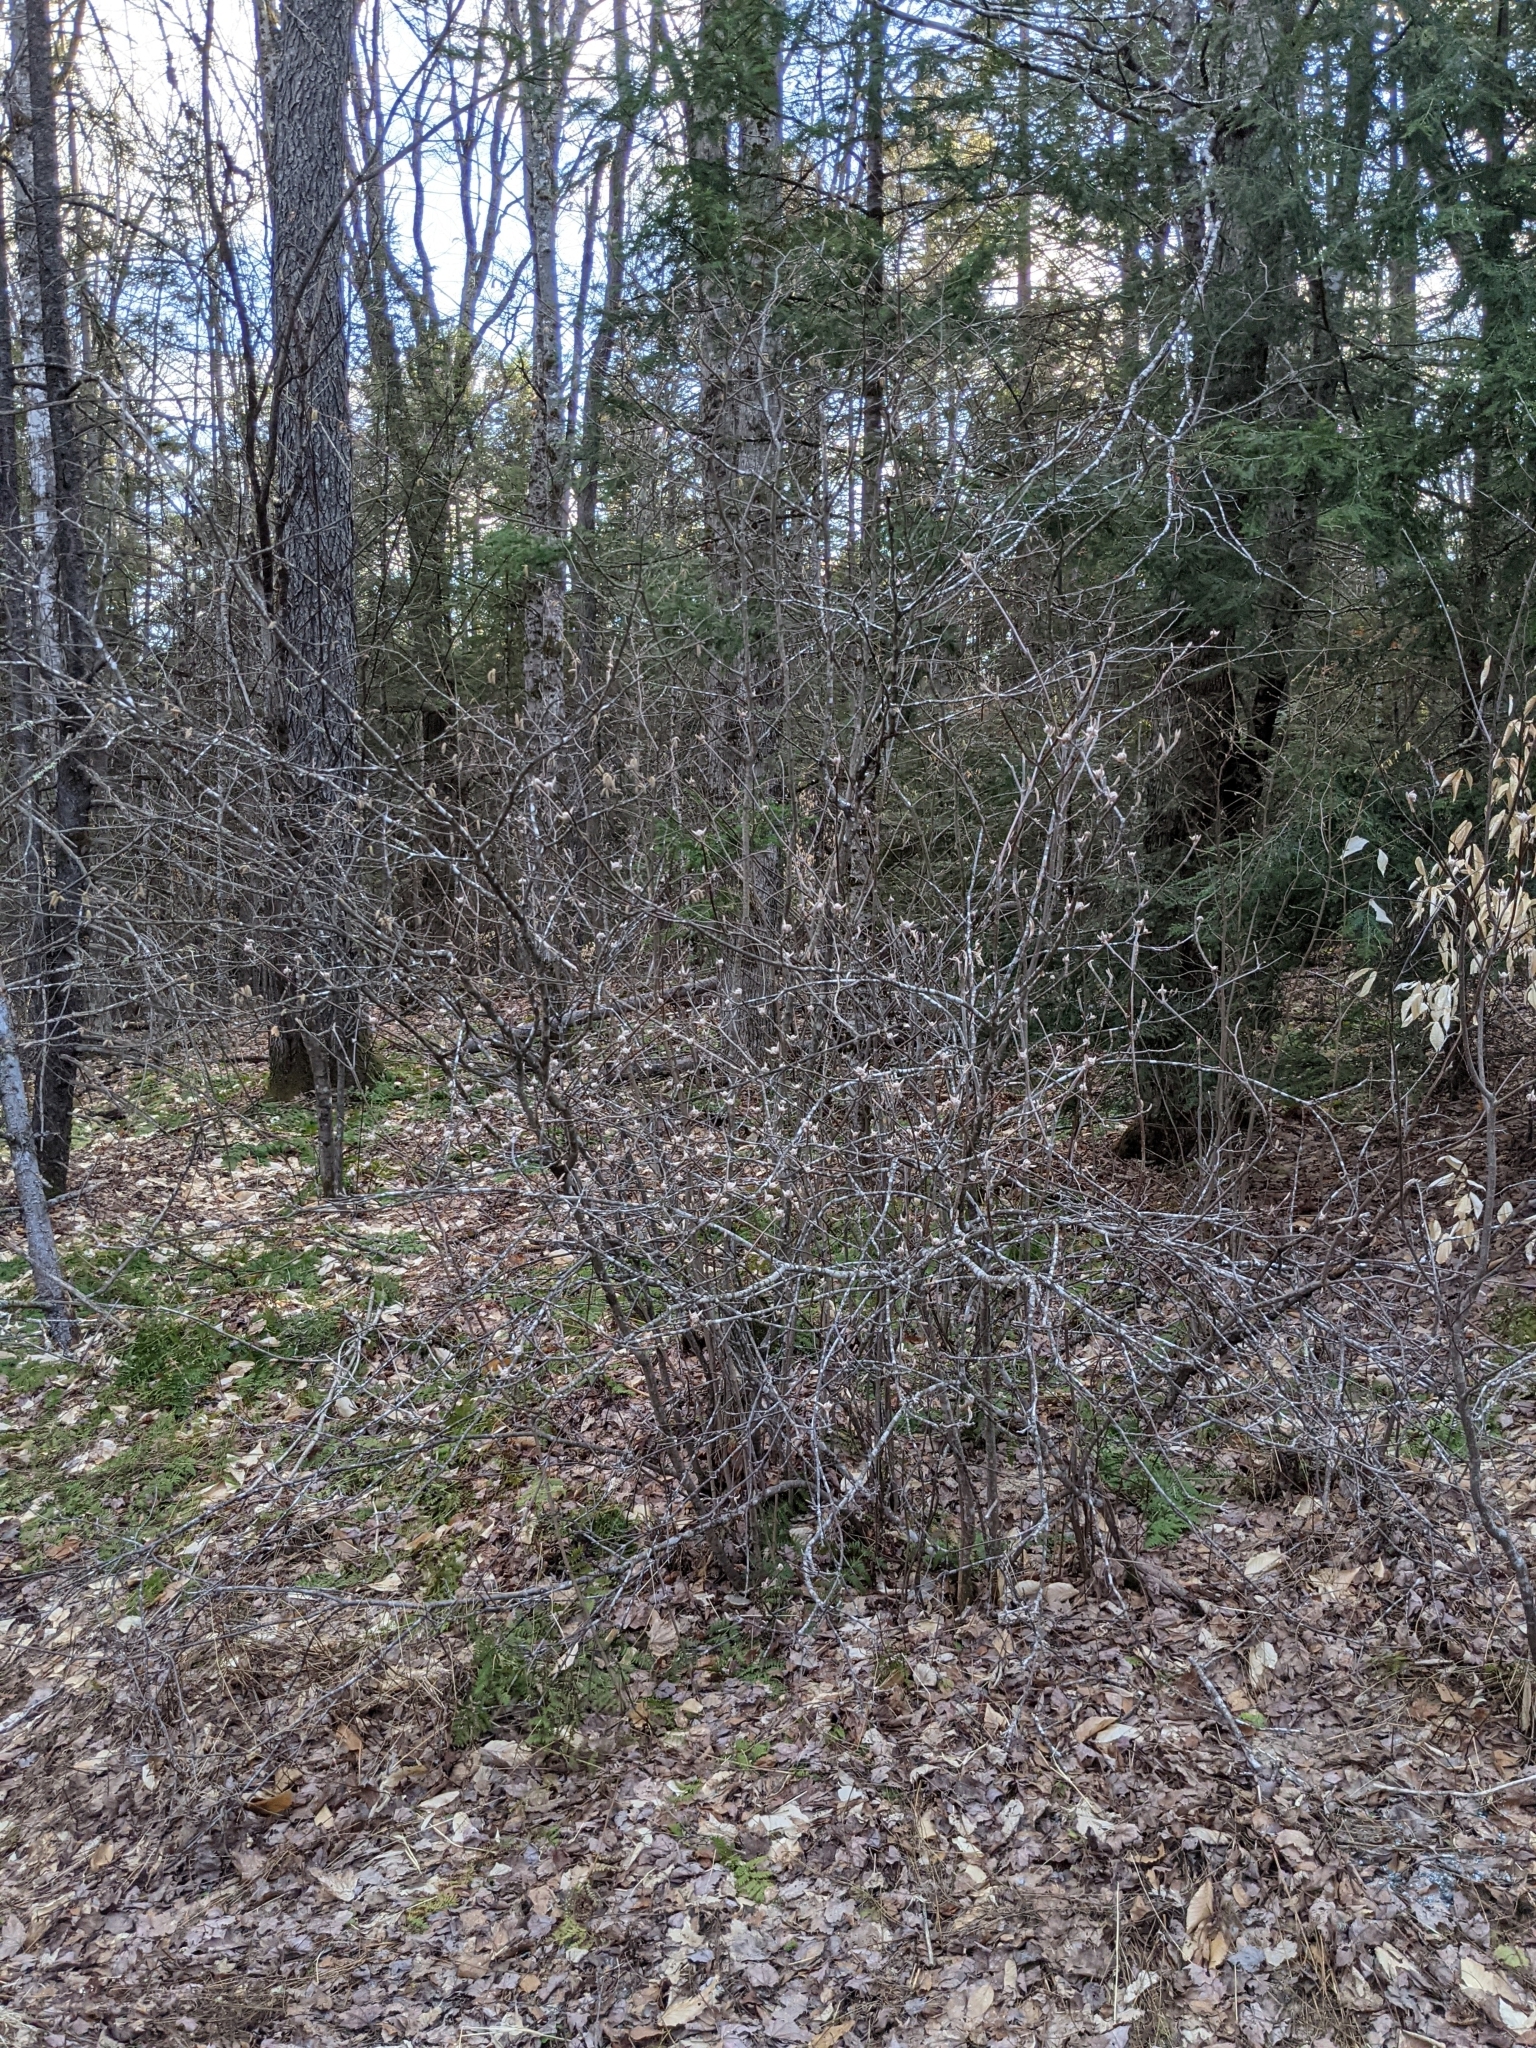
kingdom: Plantae
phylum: Tracheophyta
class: Magnoliopsida
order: Dipsacales
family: Viburnaceae
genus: Viburnum
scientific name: Viburnum lantanoides
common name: Hobblebush
